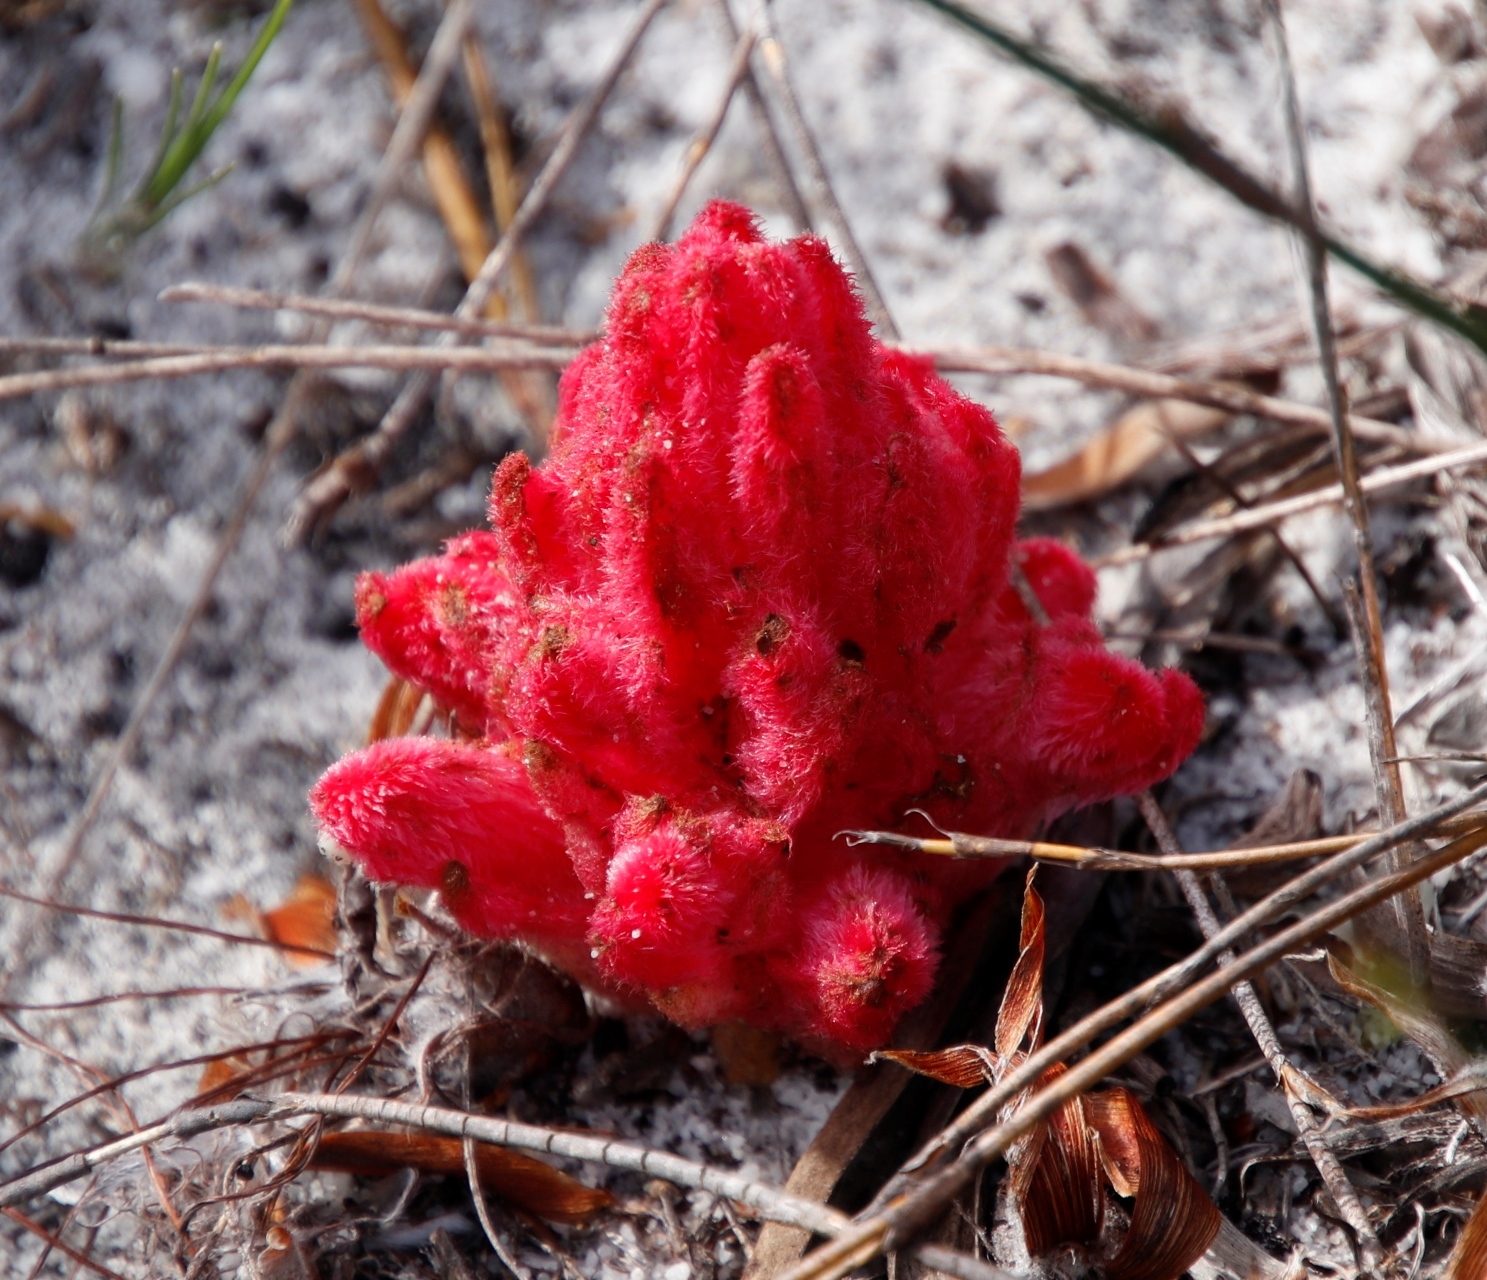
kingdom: Plantae
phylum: Tracheophyta
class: Magnoliopsida
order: Lamiales
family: Orobanchaceae
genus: Hyobanche
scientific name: Hyobanche sanguinea
